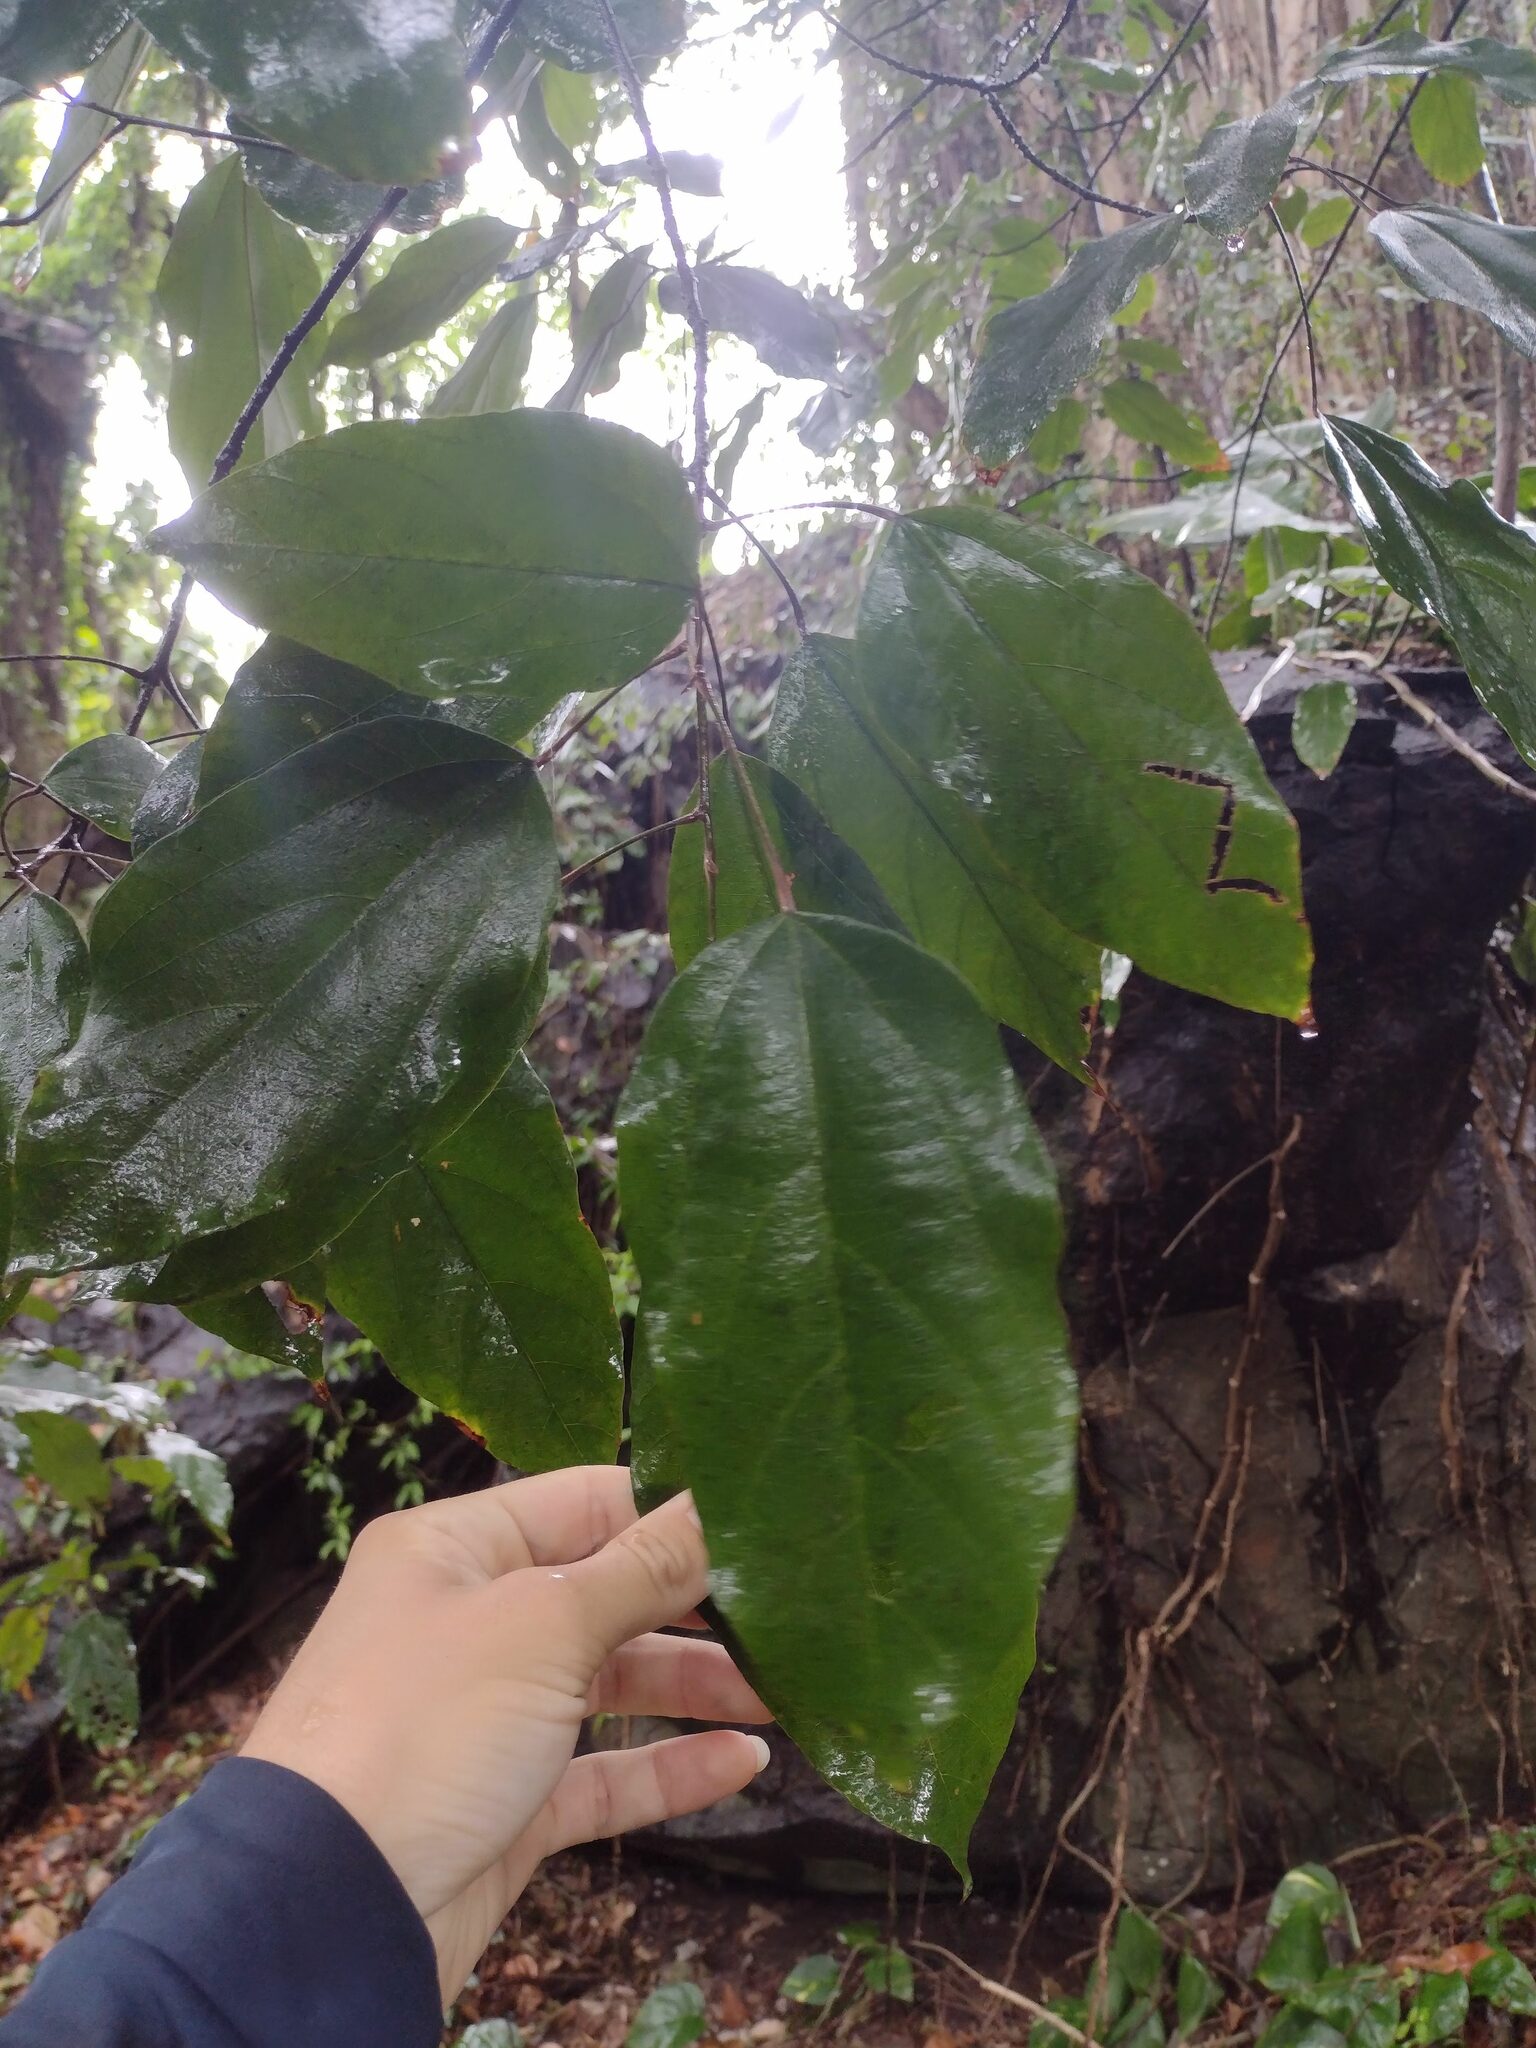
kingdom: Plantae
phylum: Tracheophyta
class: Magnoliopsida
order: Malpighiales
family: Euphorbiaceae
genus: Mallotus
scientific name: Mallotus philippensis
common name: Kamala tree
